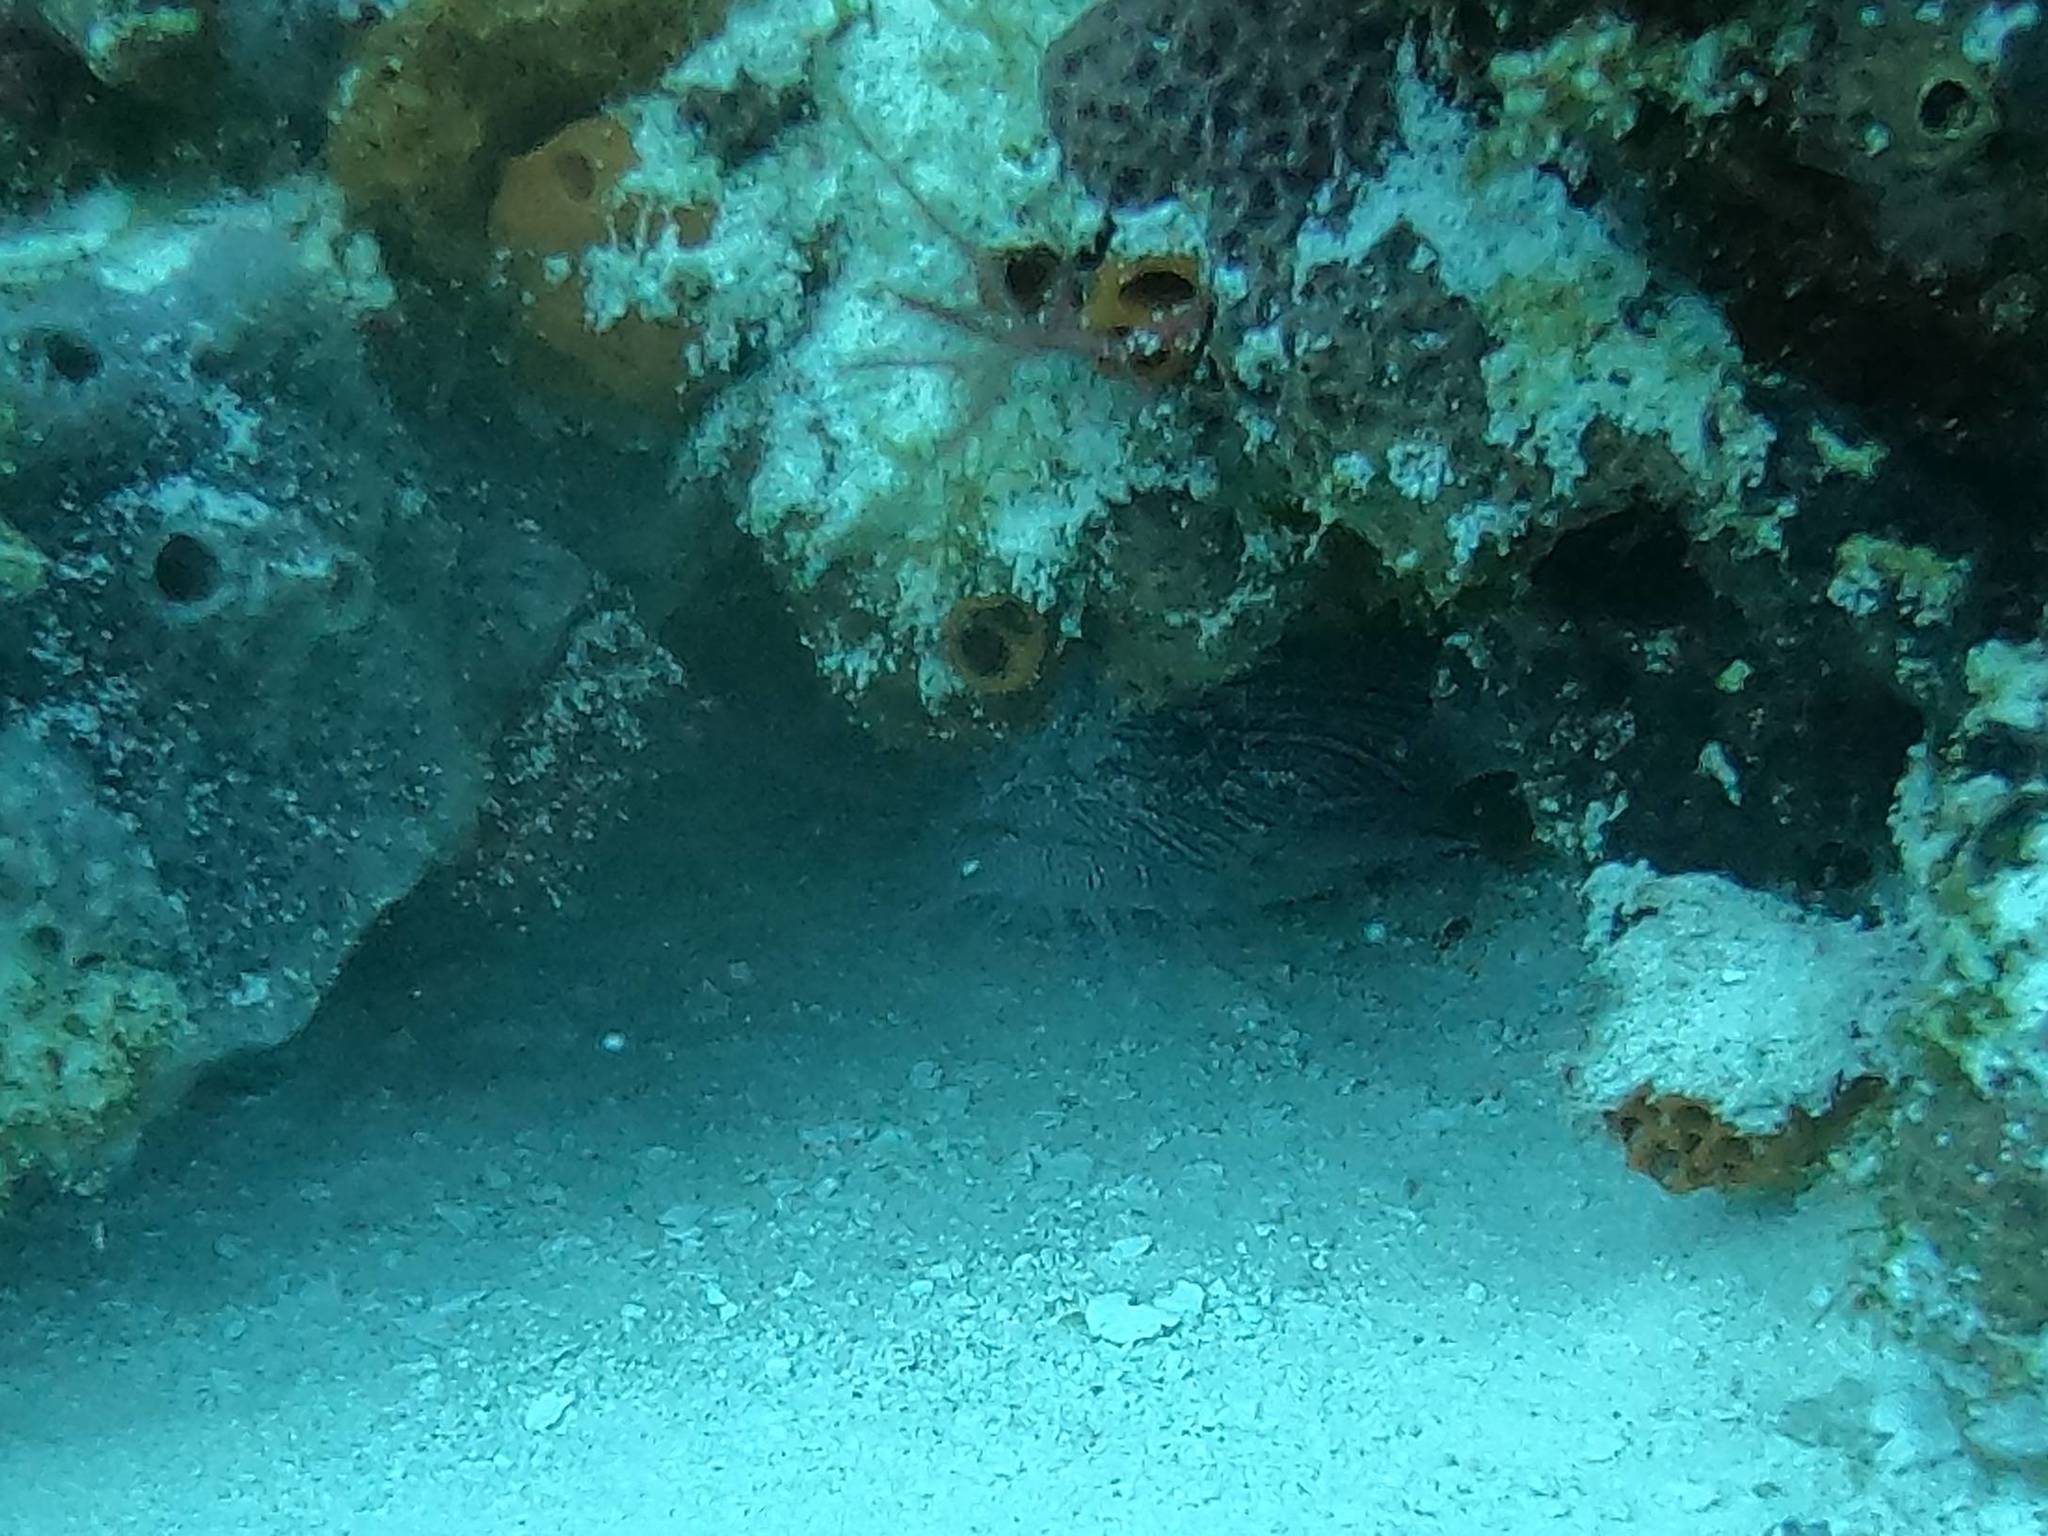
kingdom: Animalia
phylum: Chordata
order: Batrachoidiformes
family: Batrachoididae
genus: Sanopus
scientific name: Sanopus splendidus
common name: Splendid toadfish
